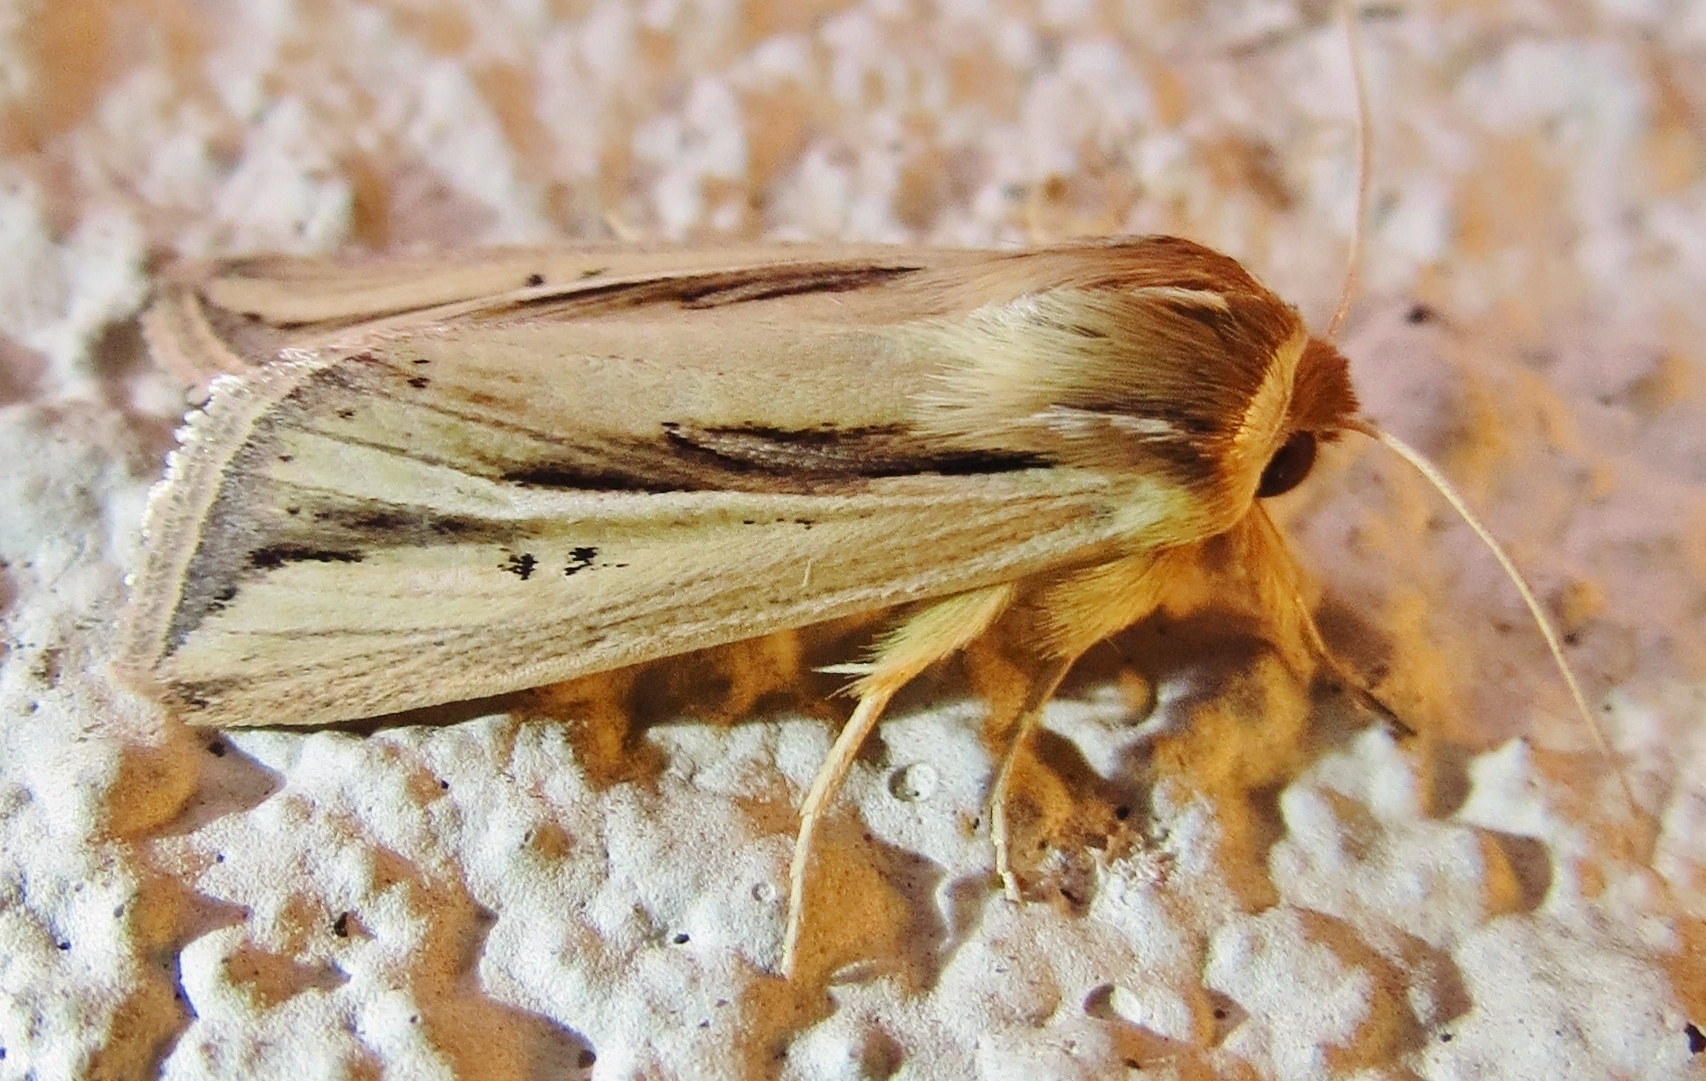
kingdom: Animalia
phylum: Arthropoda
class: Insecta
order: Lepidoptera
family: Noctuidae
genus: Dargida
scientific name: Dargida diffusa
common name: Wheat head armyworm
